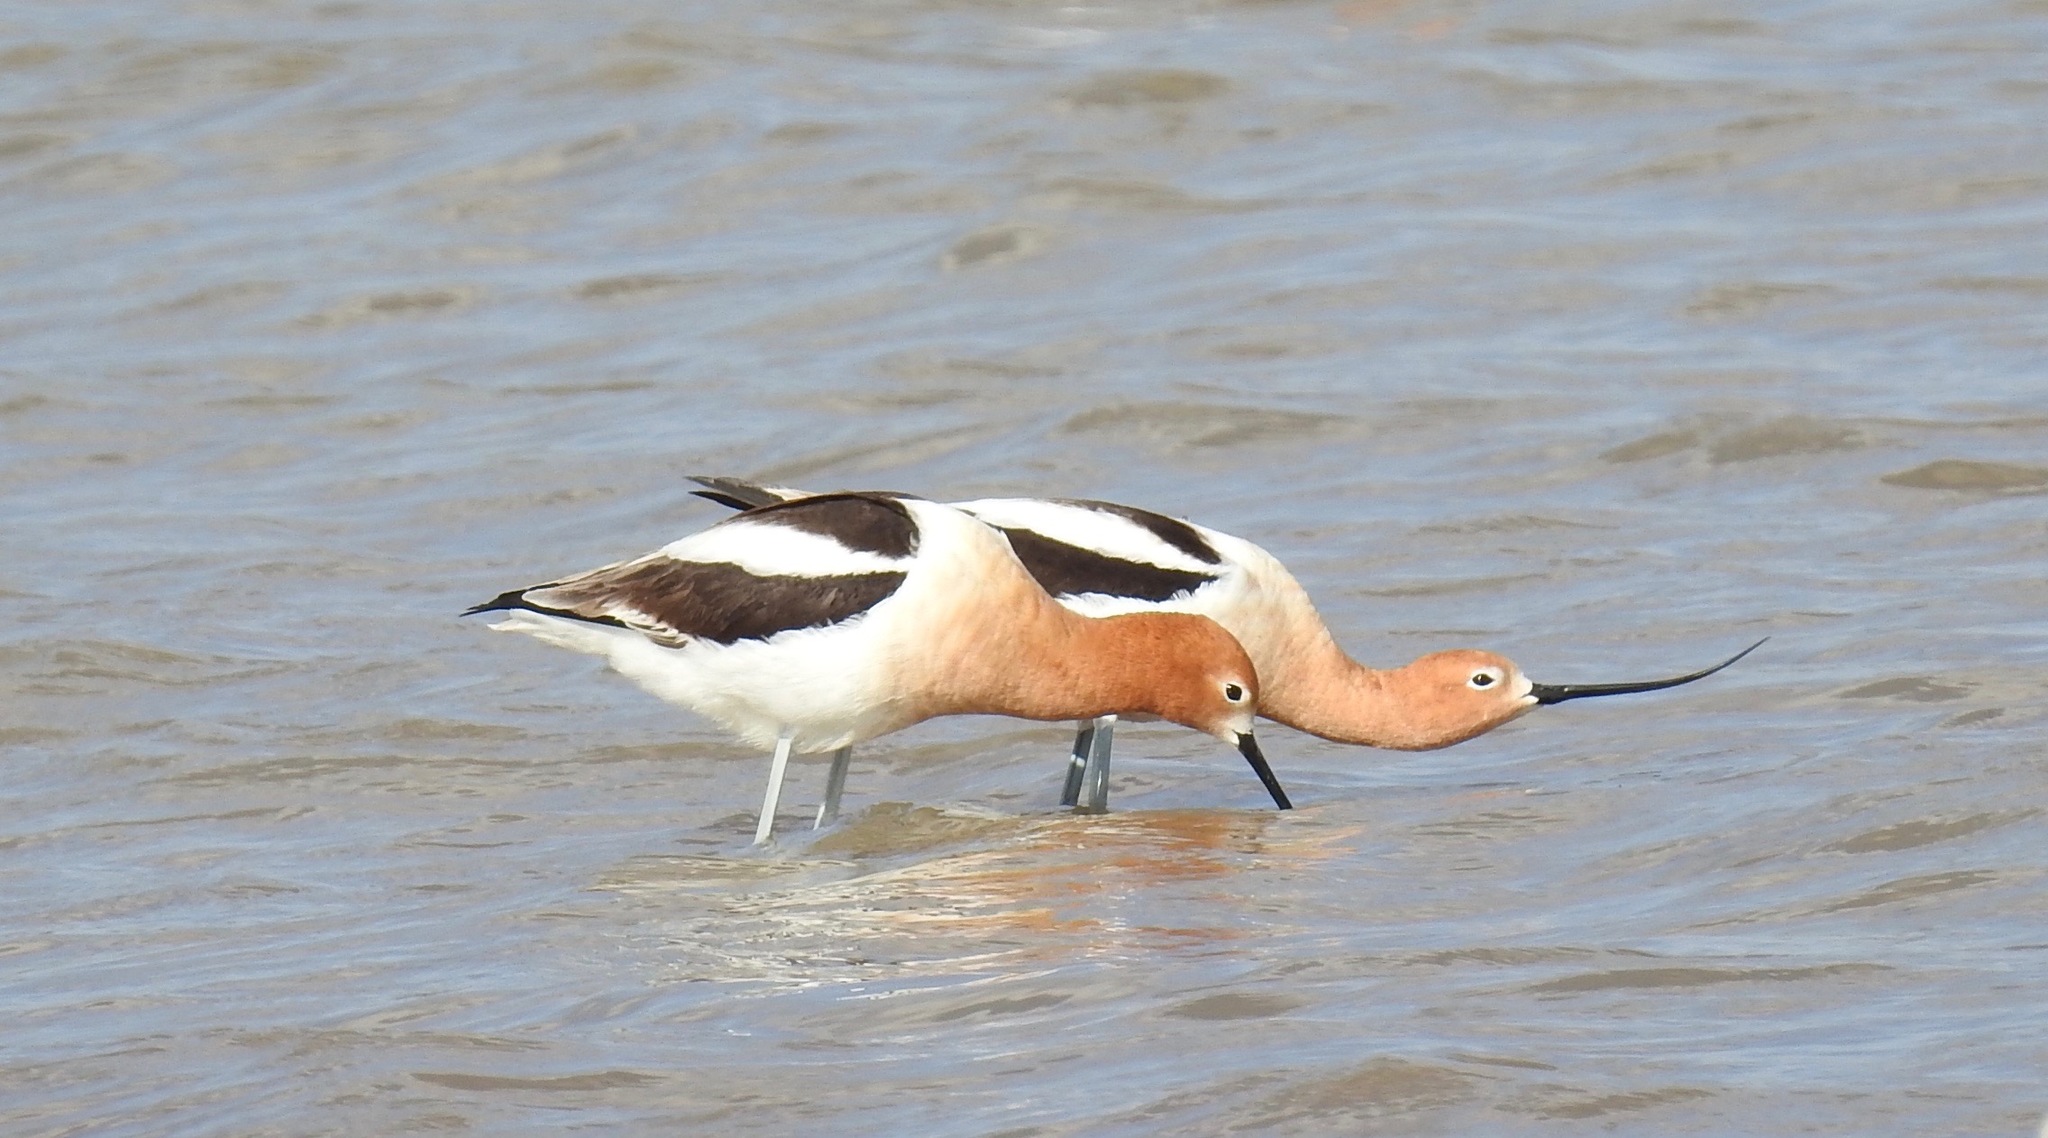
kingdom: Animalia
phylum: Chordata
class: Aves
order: Charadriiformes
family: Recurvirostridae
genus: Recurvirostra
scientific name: Recurvirostra americana
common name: American avocet
